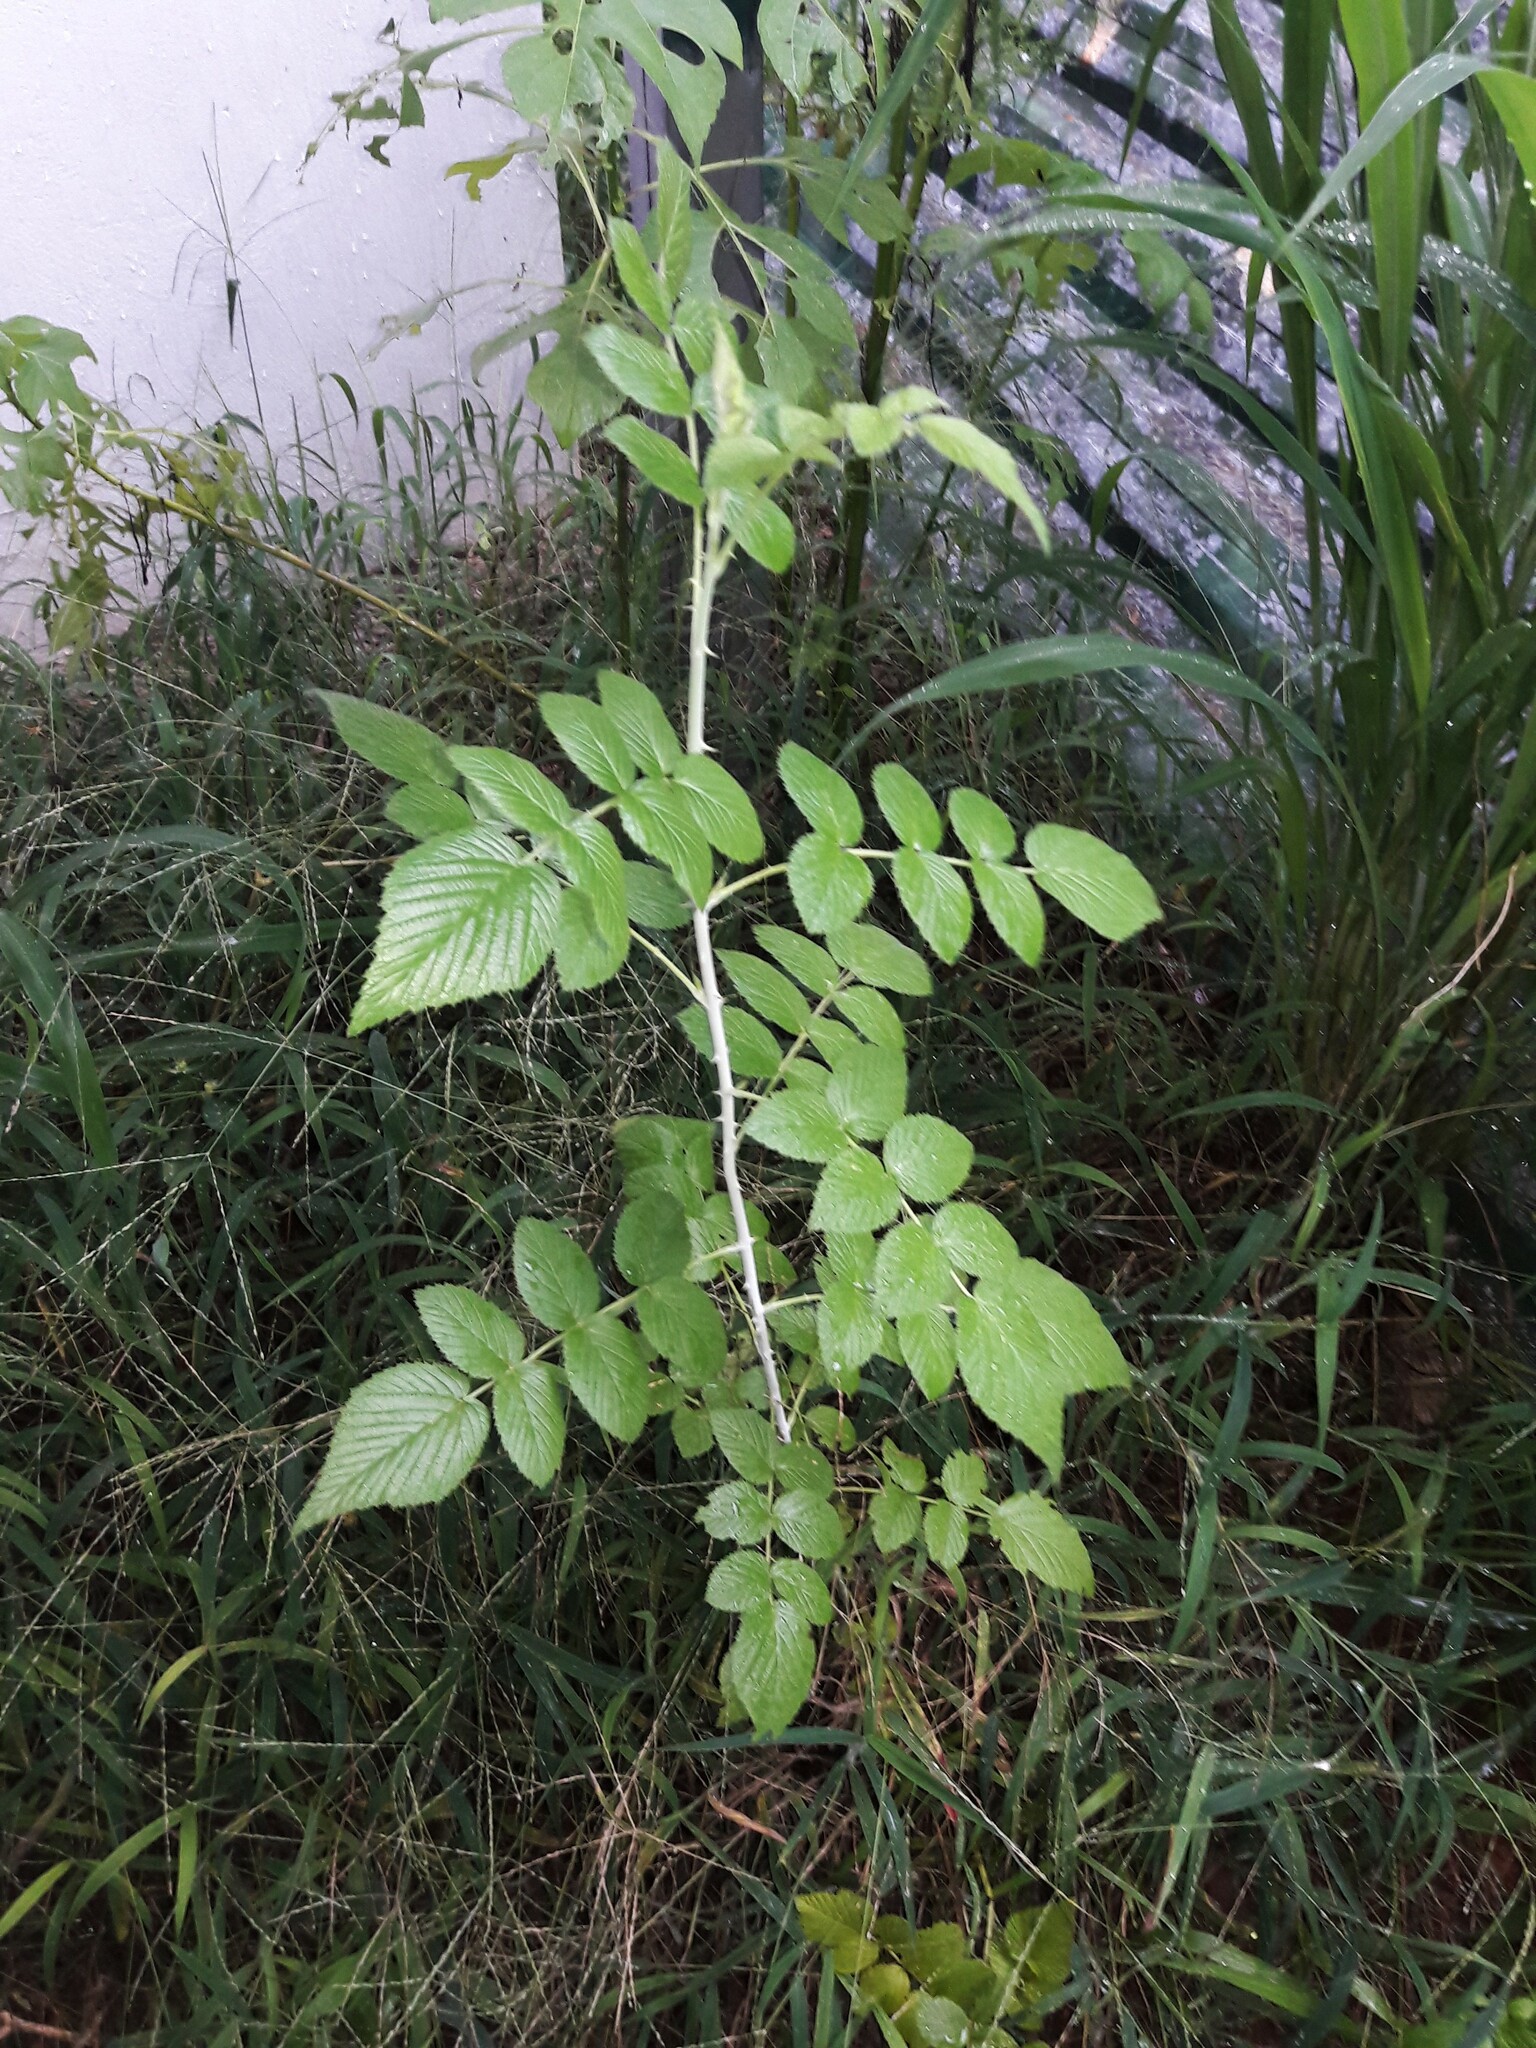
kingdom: Plantae
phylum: Tracheophyta
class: Magnoliopsida
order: Rosales
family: Rosaceae
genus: Rubus
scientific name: Rubus niveus
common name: Snowpeaks raspberry
